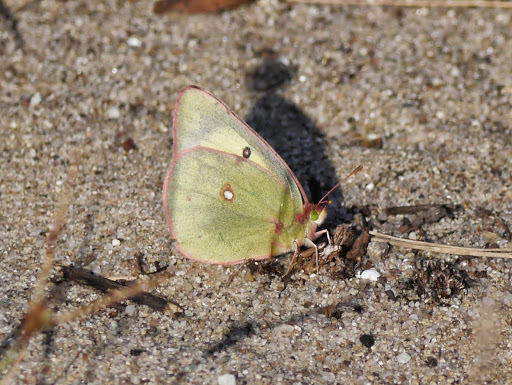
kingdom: Animalia
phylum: Arthropoda
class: Insecta
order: Lepidoptera
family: Pieridae
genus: Colias
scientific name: Colias
